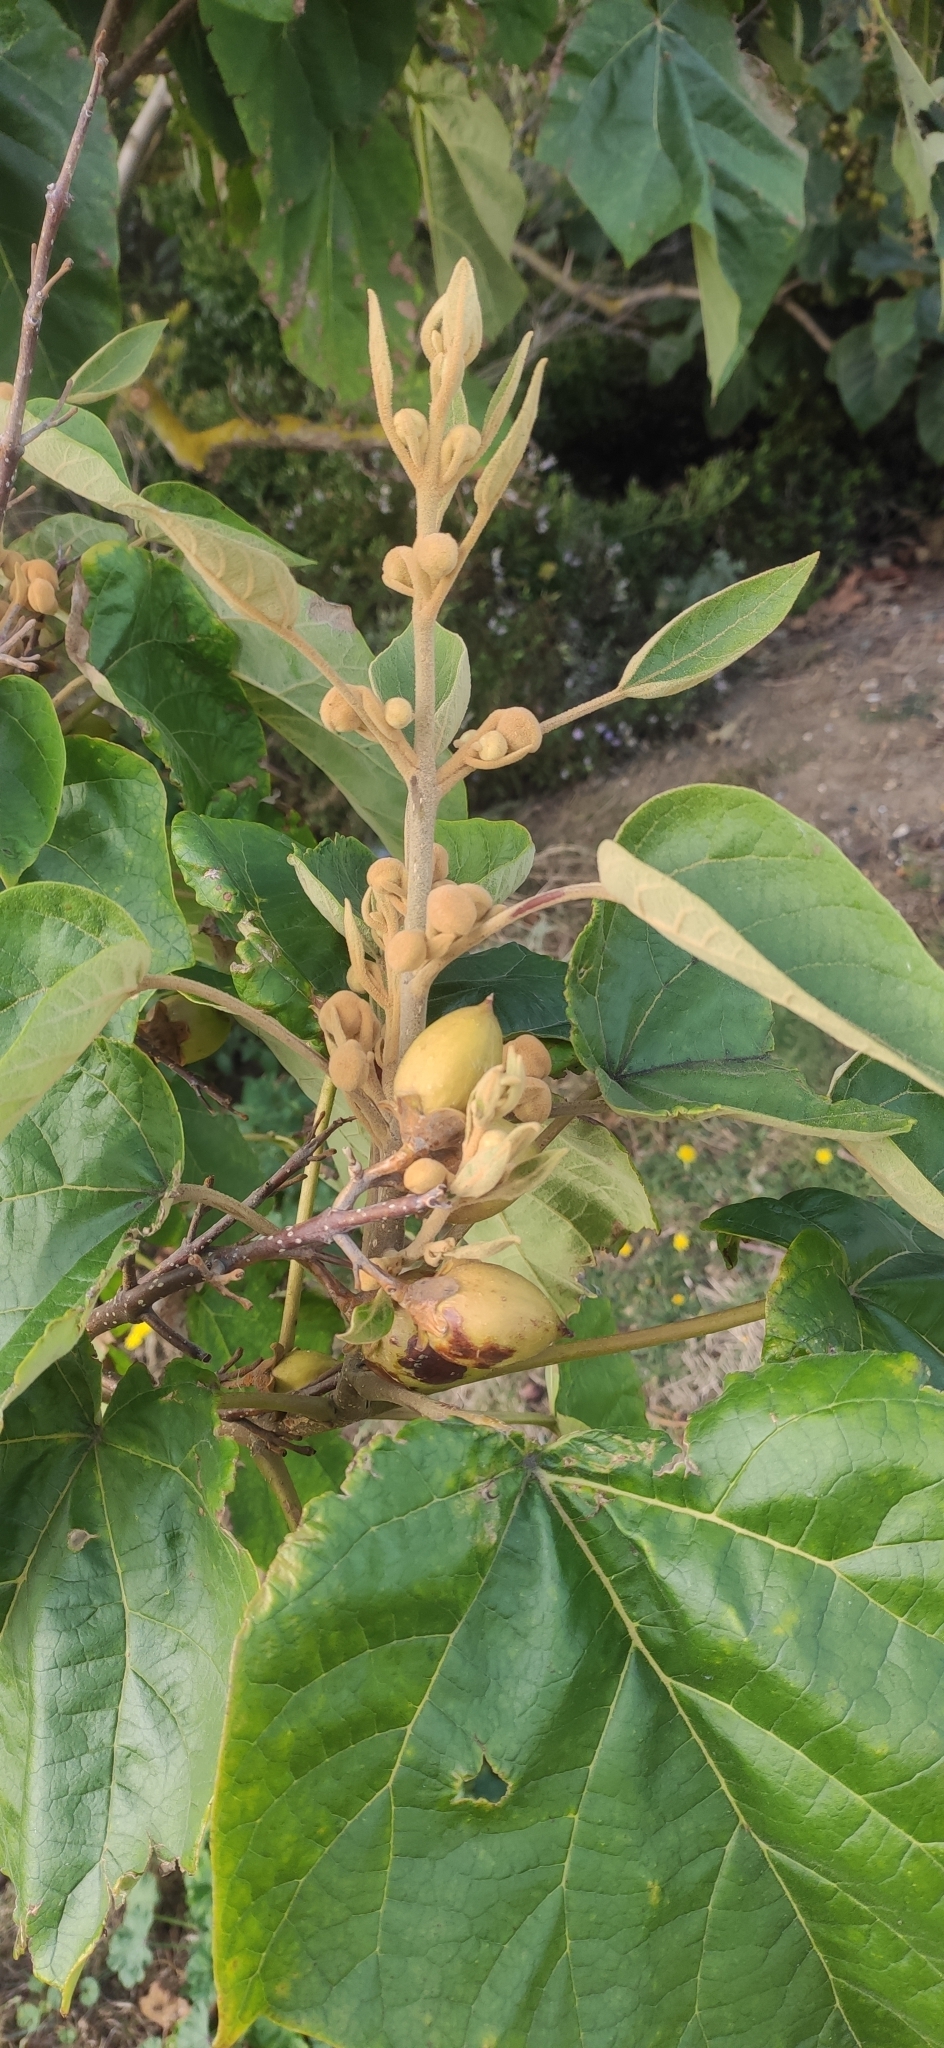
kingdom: Plantae
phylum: Tracheophyta
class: Magnoliopsida
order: Lamiales
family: Paulowniaceae
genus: Paulownia
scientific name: Paulownia tomentosa
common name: Foxglove-tree
